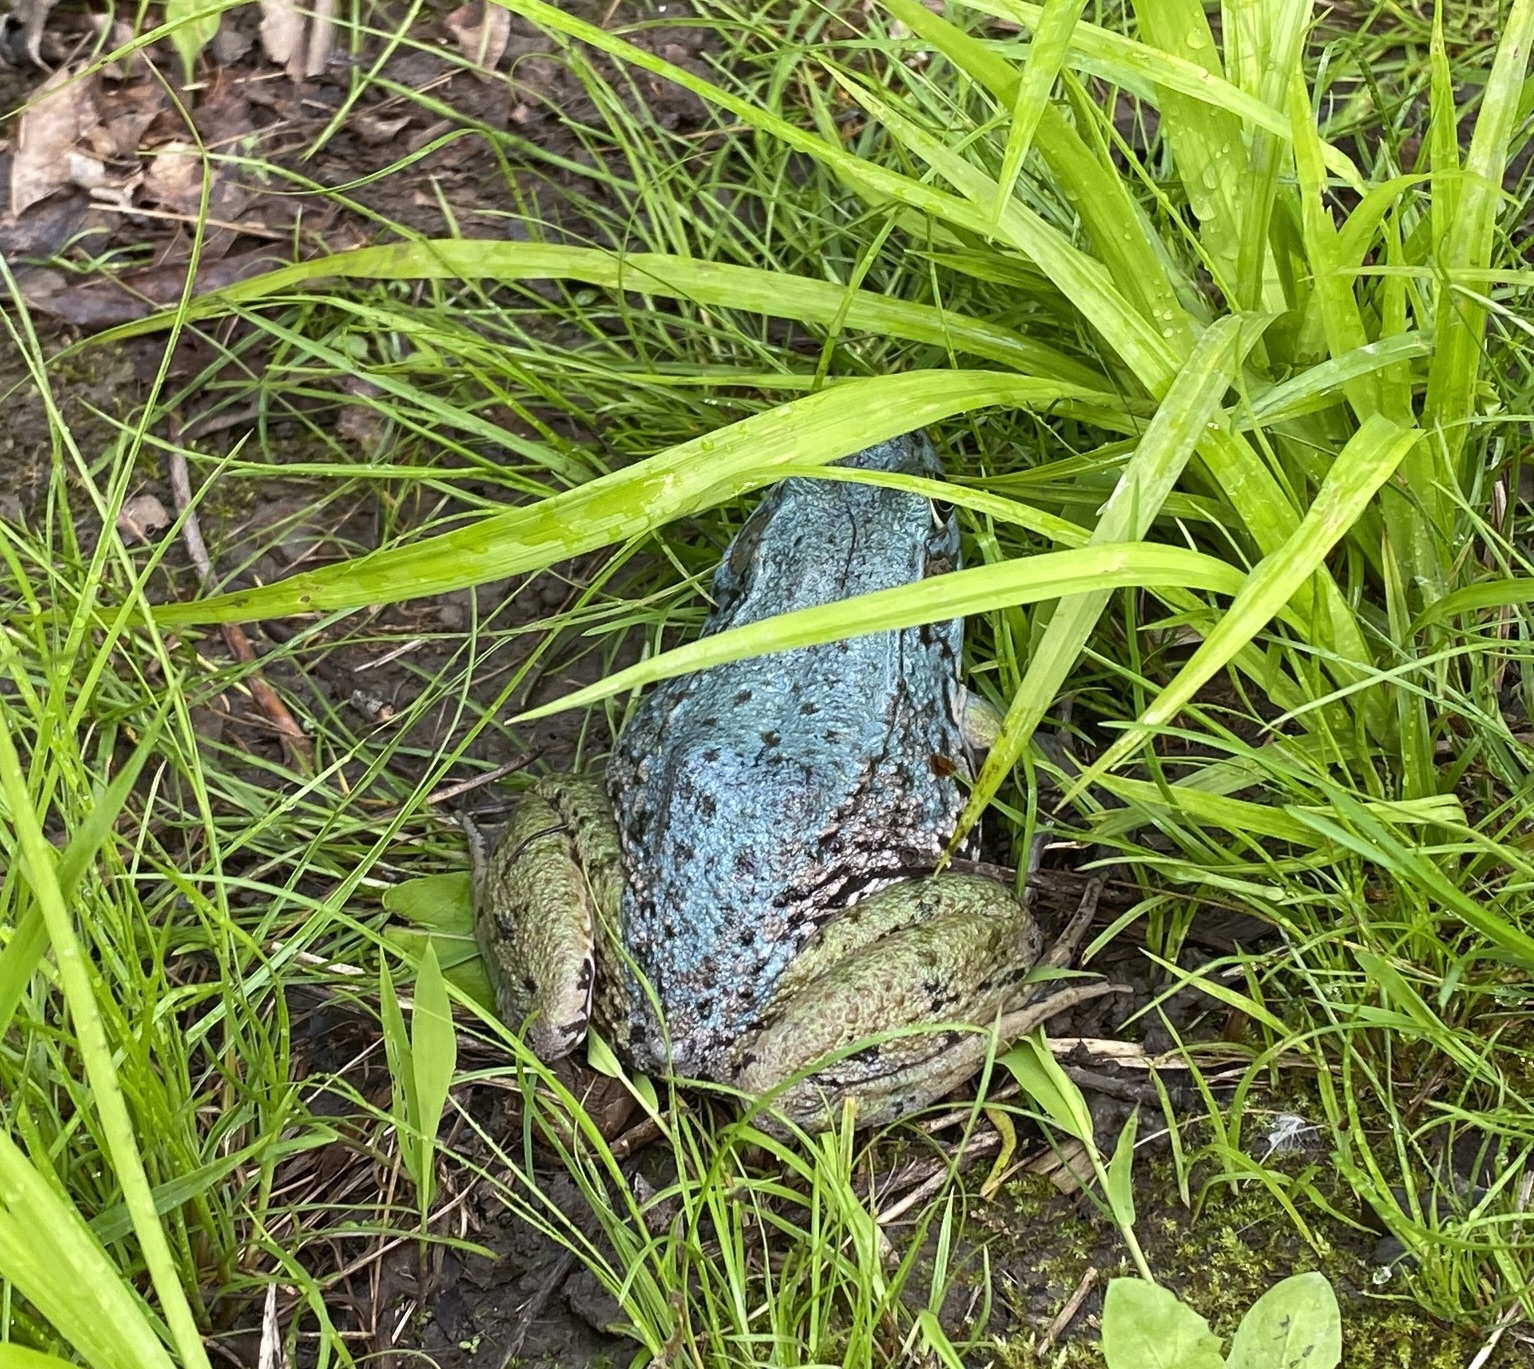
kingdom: Animalia
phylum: Chordata
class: Amphibia
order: Anura
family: Ranidae
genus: Lithobates
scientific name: Lithobates clamitans
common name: Green frog
